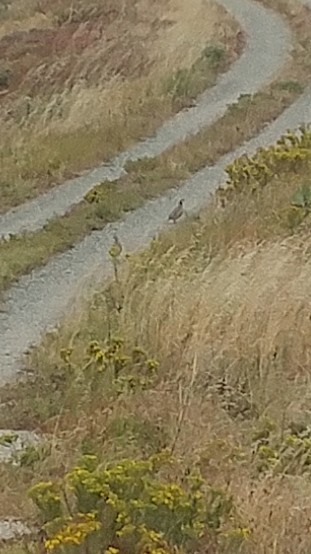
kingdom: Animalia
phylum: Chordata
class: Aves
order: Galliformes
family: Phasianidae
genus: Alectoris
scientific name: Alectoris chukar
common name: Chukar
